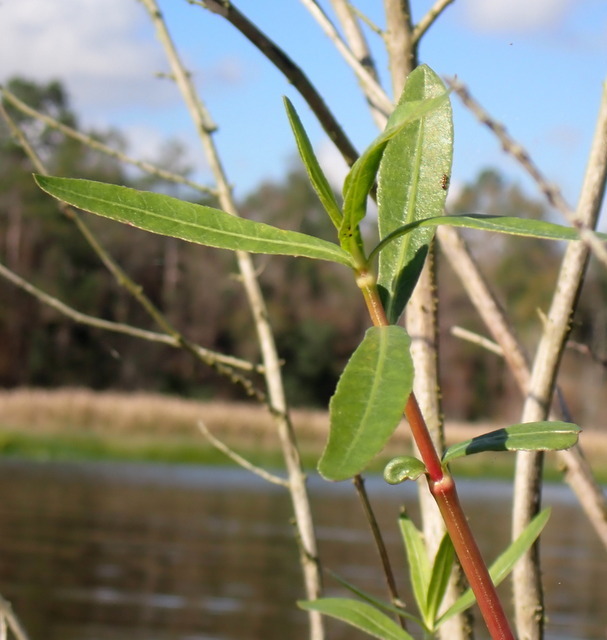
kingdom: Plantae
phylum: Tracheophyta
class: Magnoliopsida
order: Caryophyllales
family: Amaranthaceae
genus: Alternanthera
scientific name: Alternanthera philoxeroides
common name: Alligatorweed
